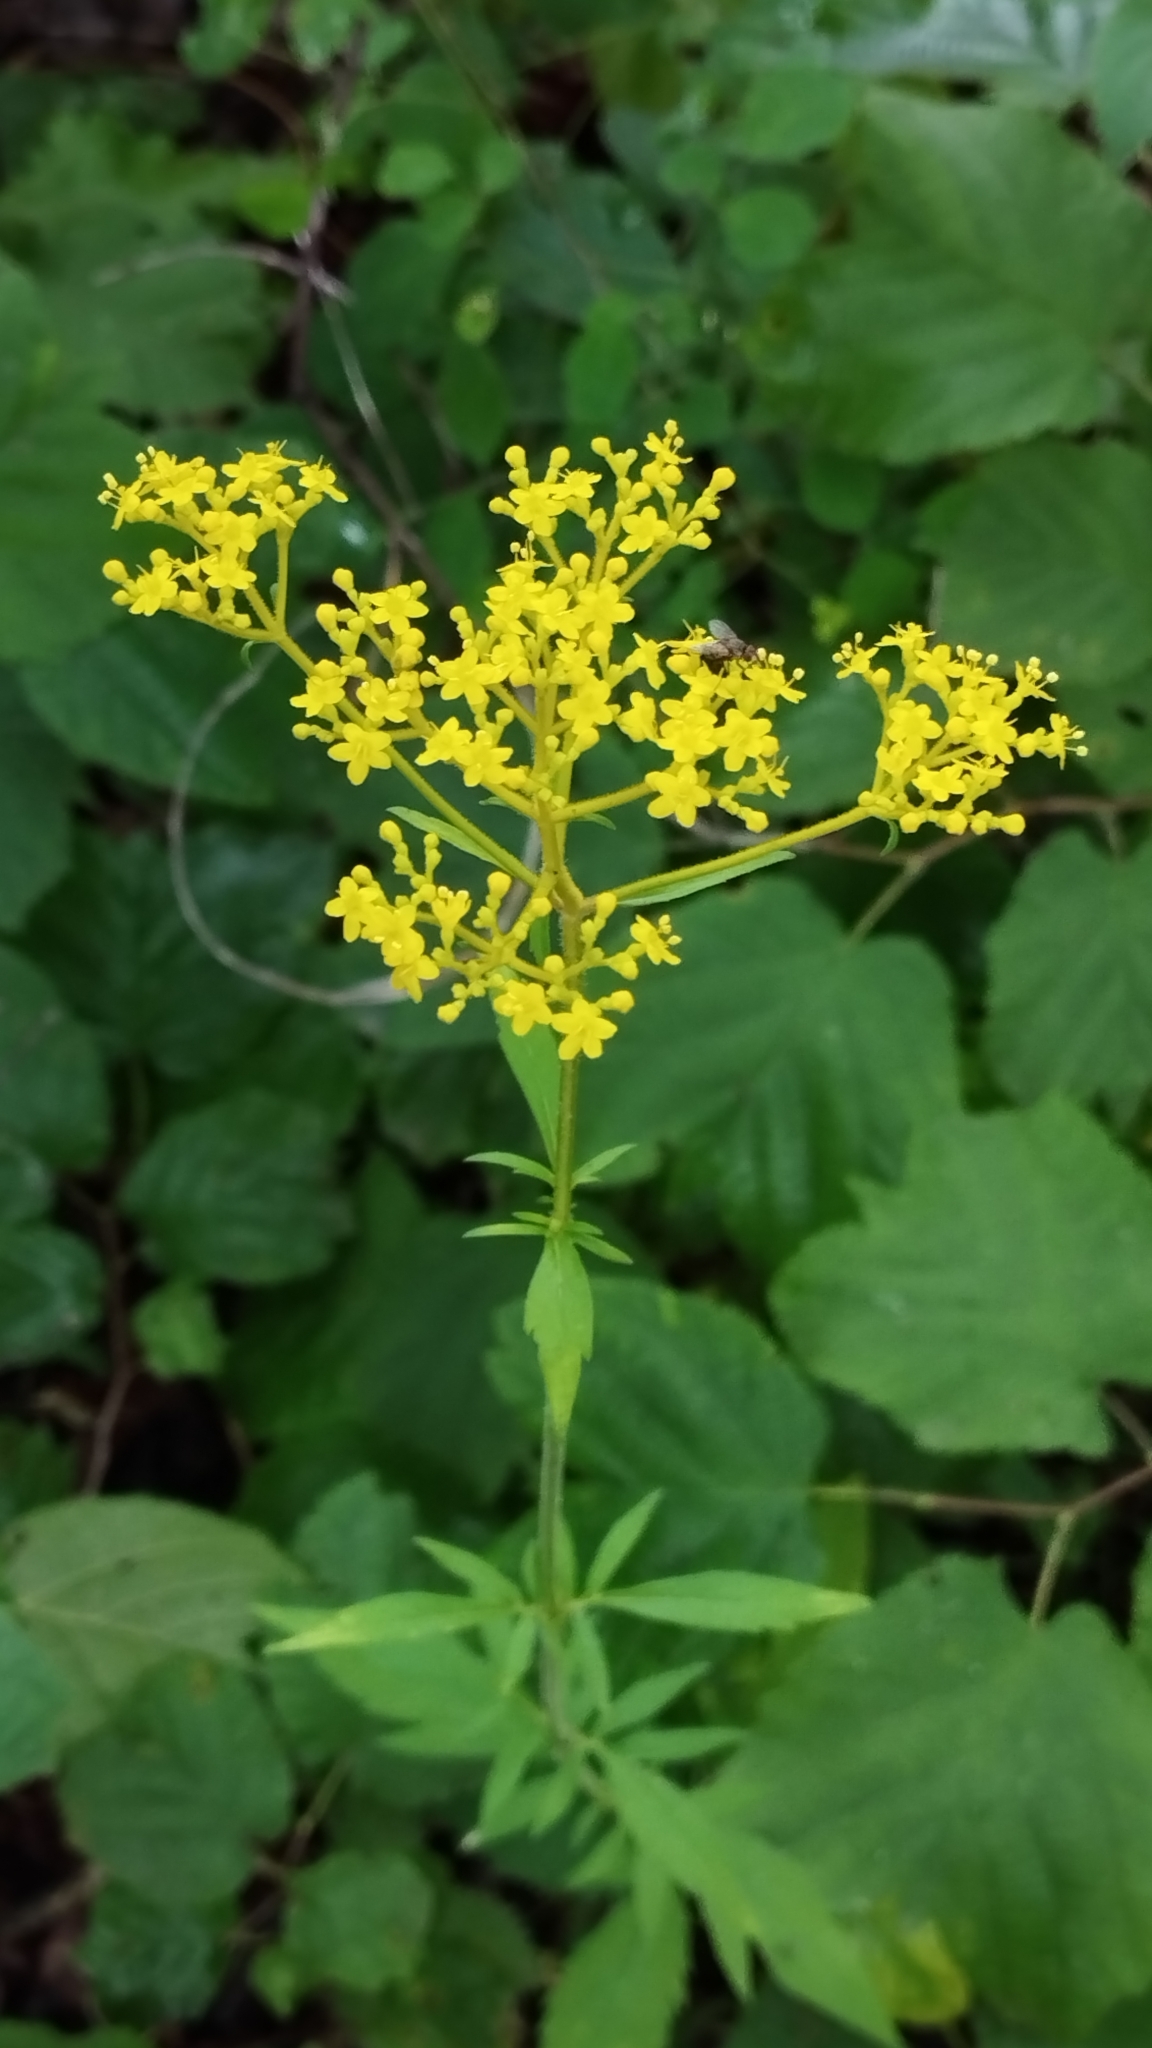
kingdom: Plantae
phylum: Tracheophyta
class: Magnoliopsida
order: Dipsacales
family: Caprifoliaceae
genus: Patrinia
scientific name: Patrinia scabiosifolia
